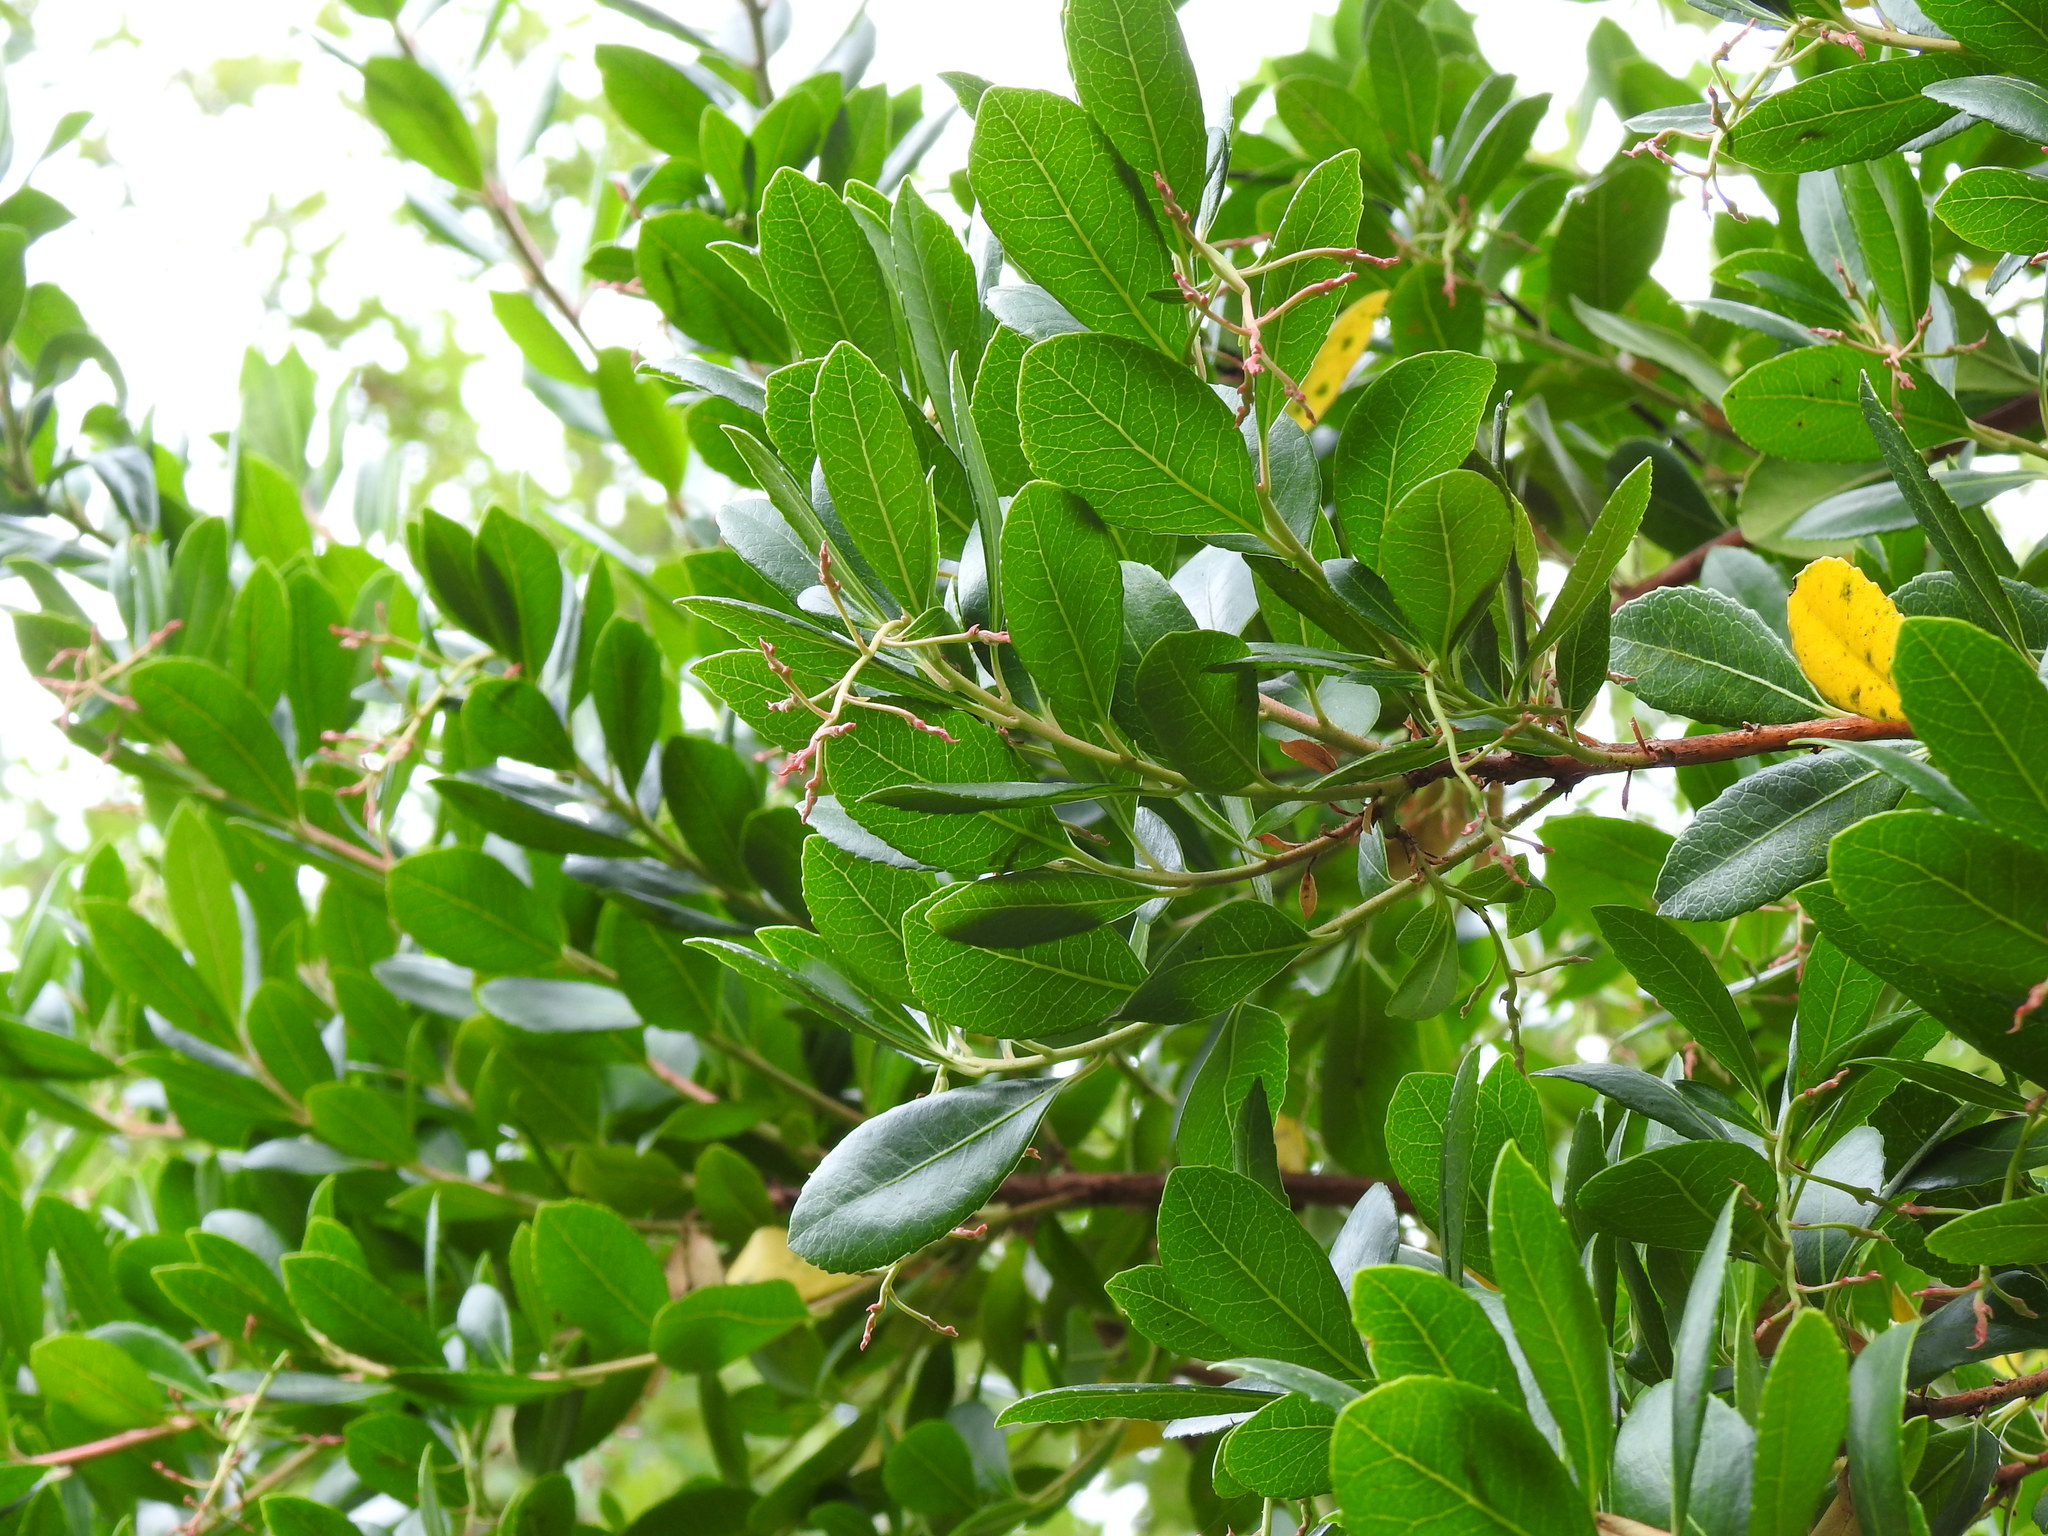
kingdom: Plantae
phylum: Tracheophyta
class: Magnoliopsida
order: Ericales
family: Ericaceae
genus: Arbutus
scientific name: Arbutus unedo
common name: Strawberry-tree
